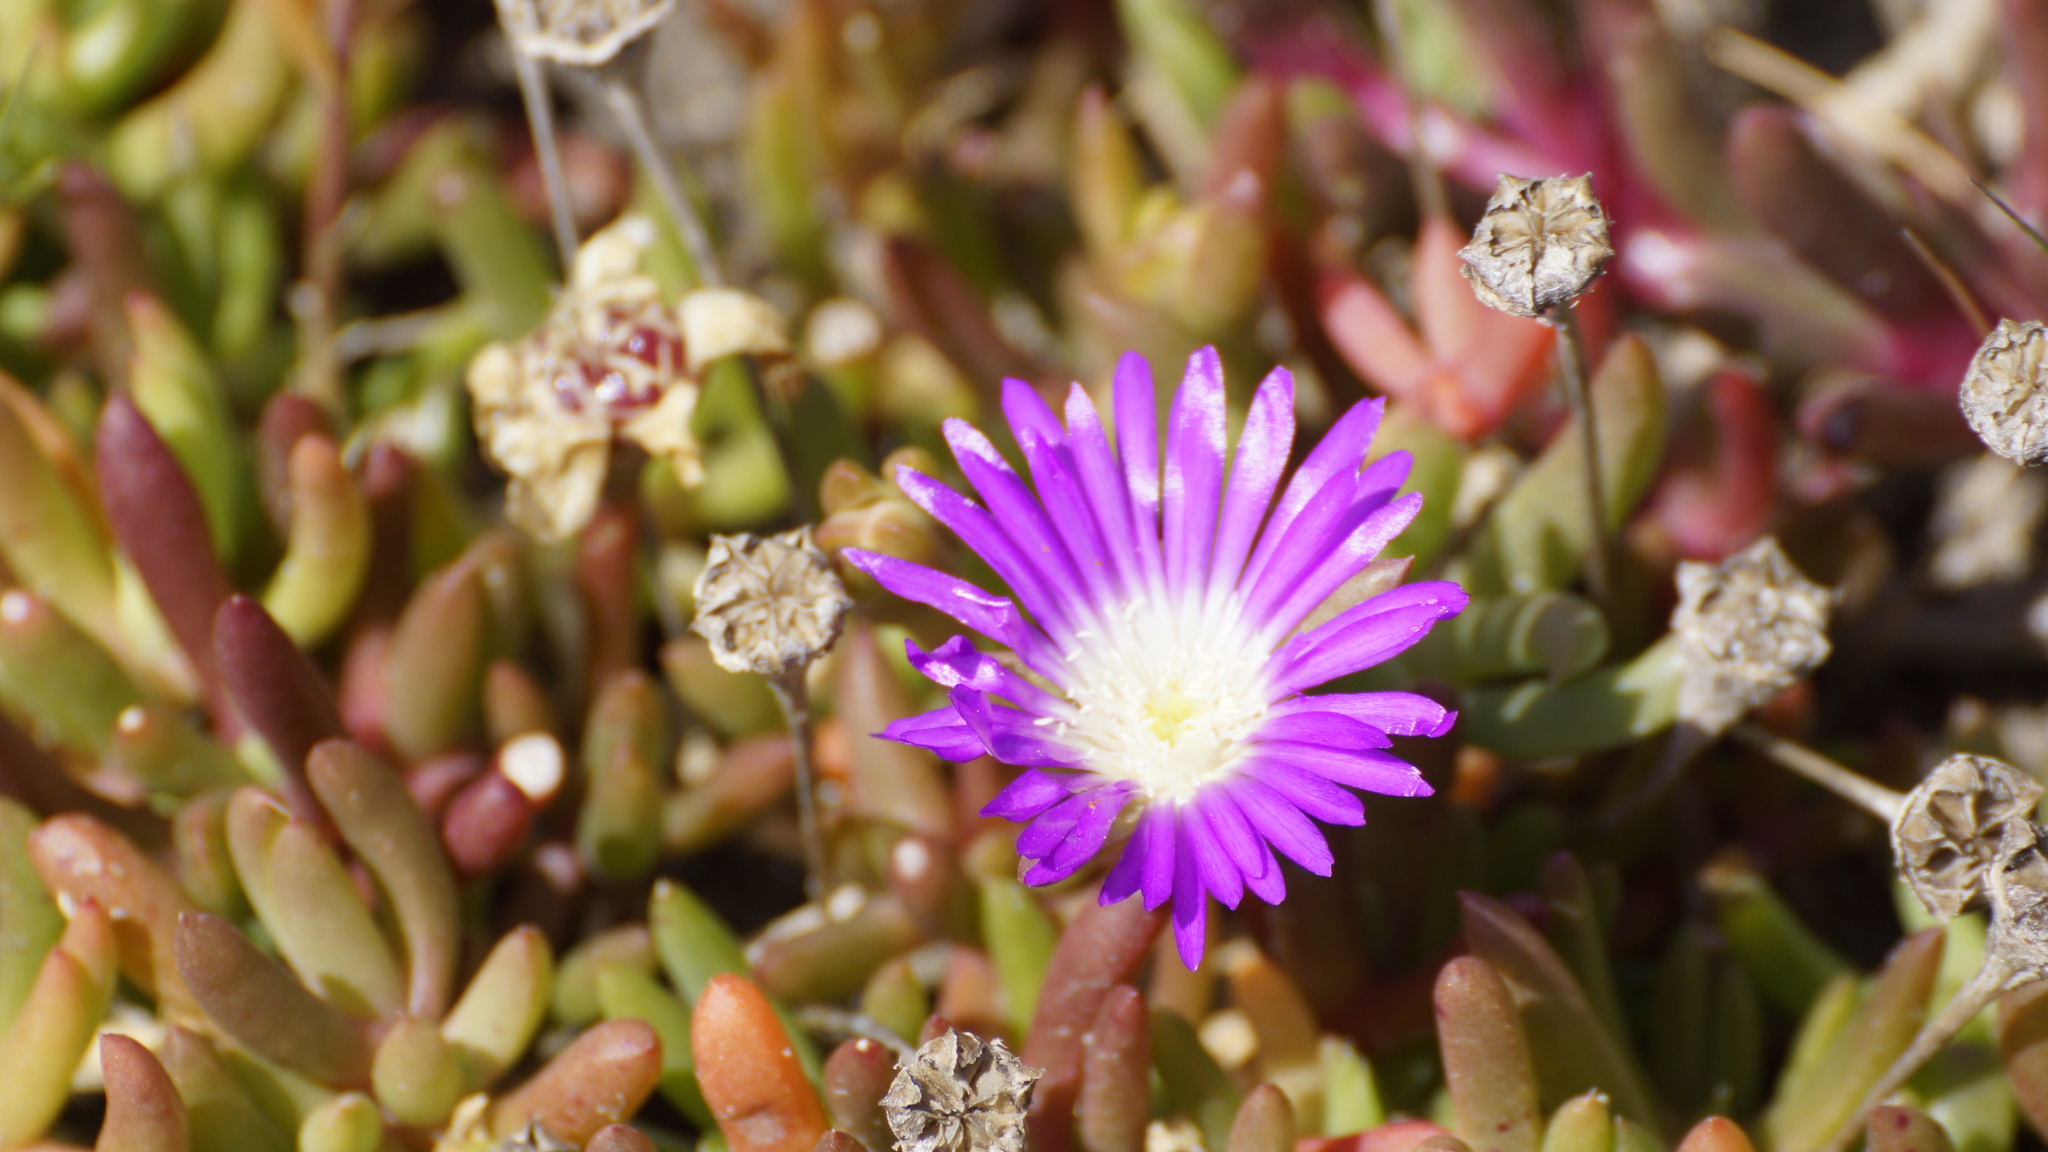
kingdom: Plantae
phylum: Tracheophyta
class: Magnoliopsida
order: Caryophyllales
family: Aizoaceae
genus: Disphyma
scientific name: Disphyma clavellatum
